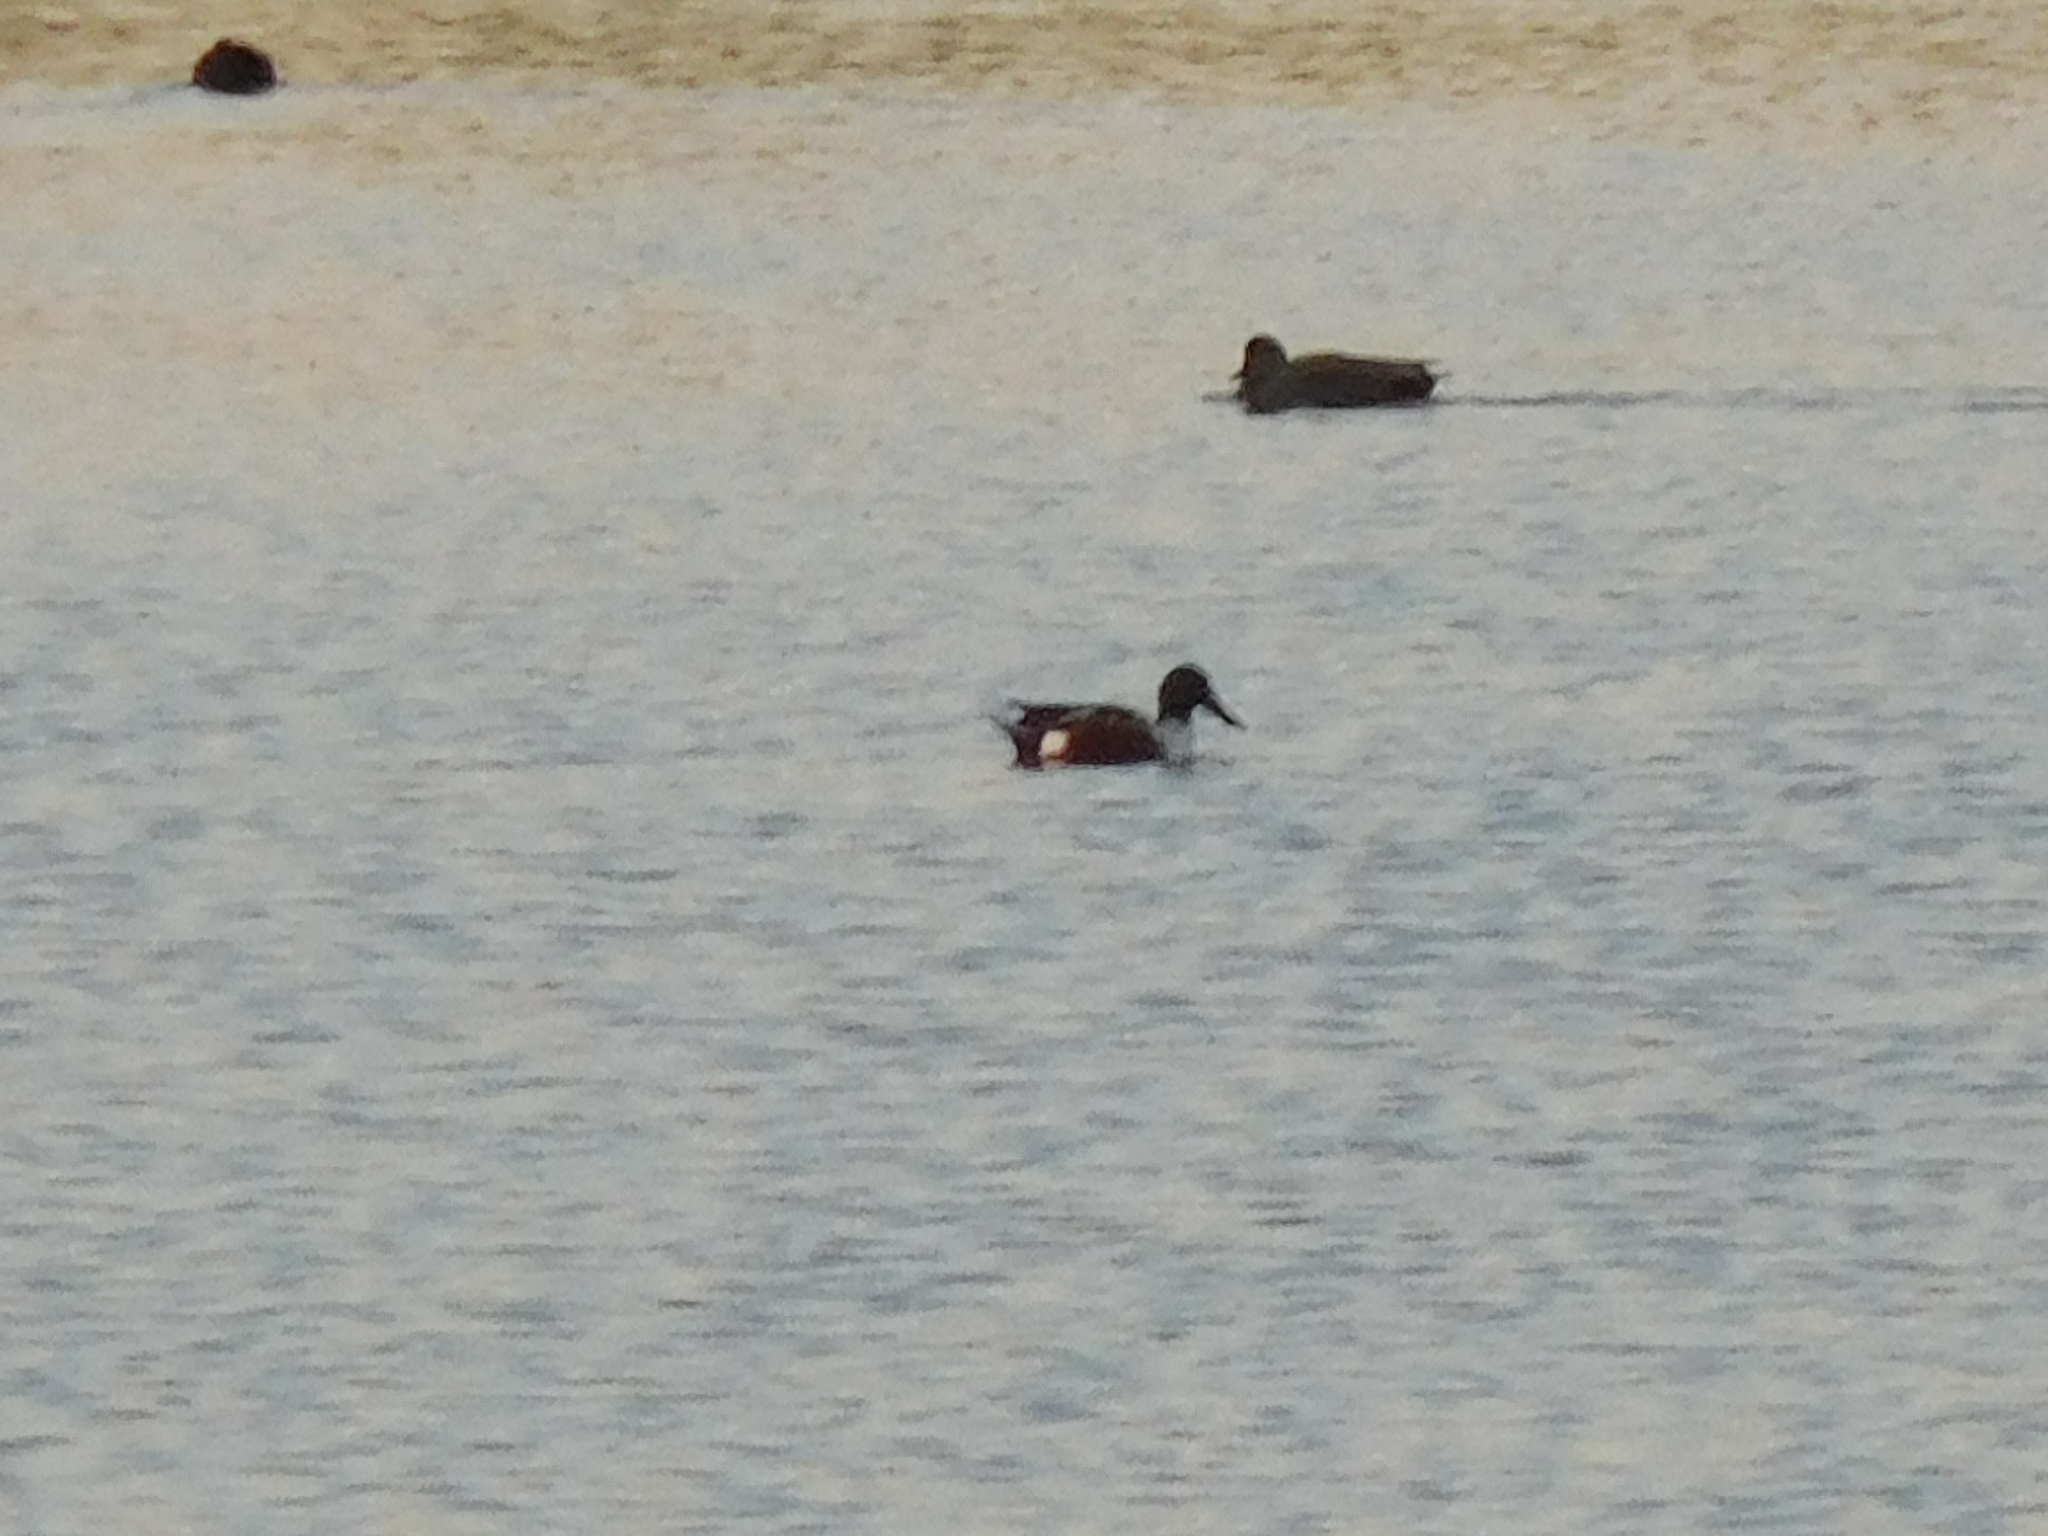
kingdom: Animalia
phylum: Chordata
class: Aves
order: Anseriformes
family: Anatidae
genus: Spatula
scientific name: Spatula clypeata
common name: Northern shoveler
